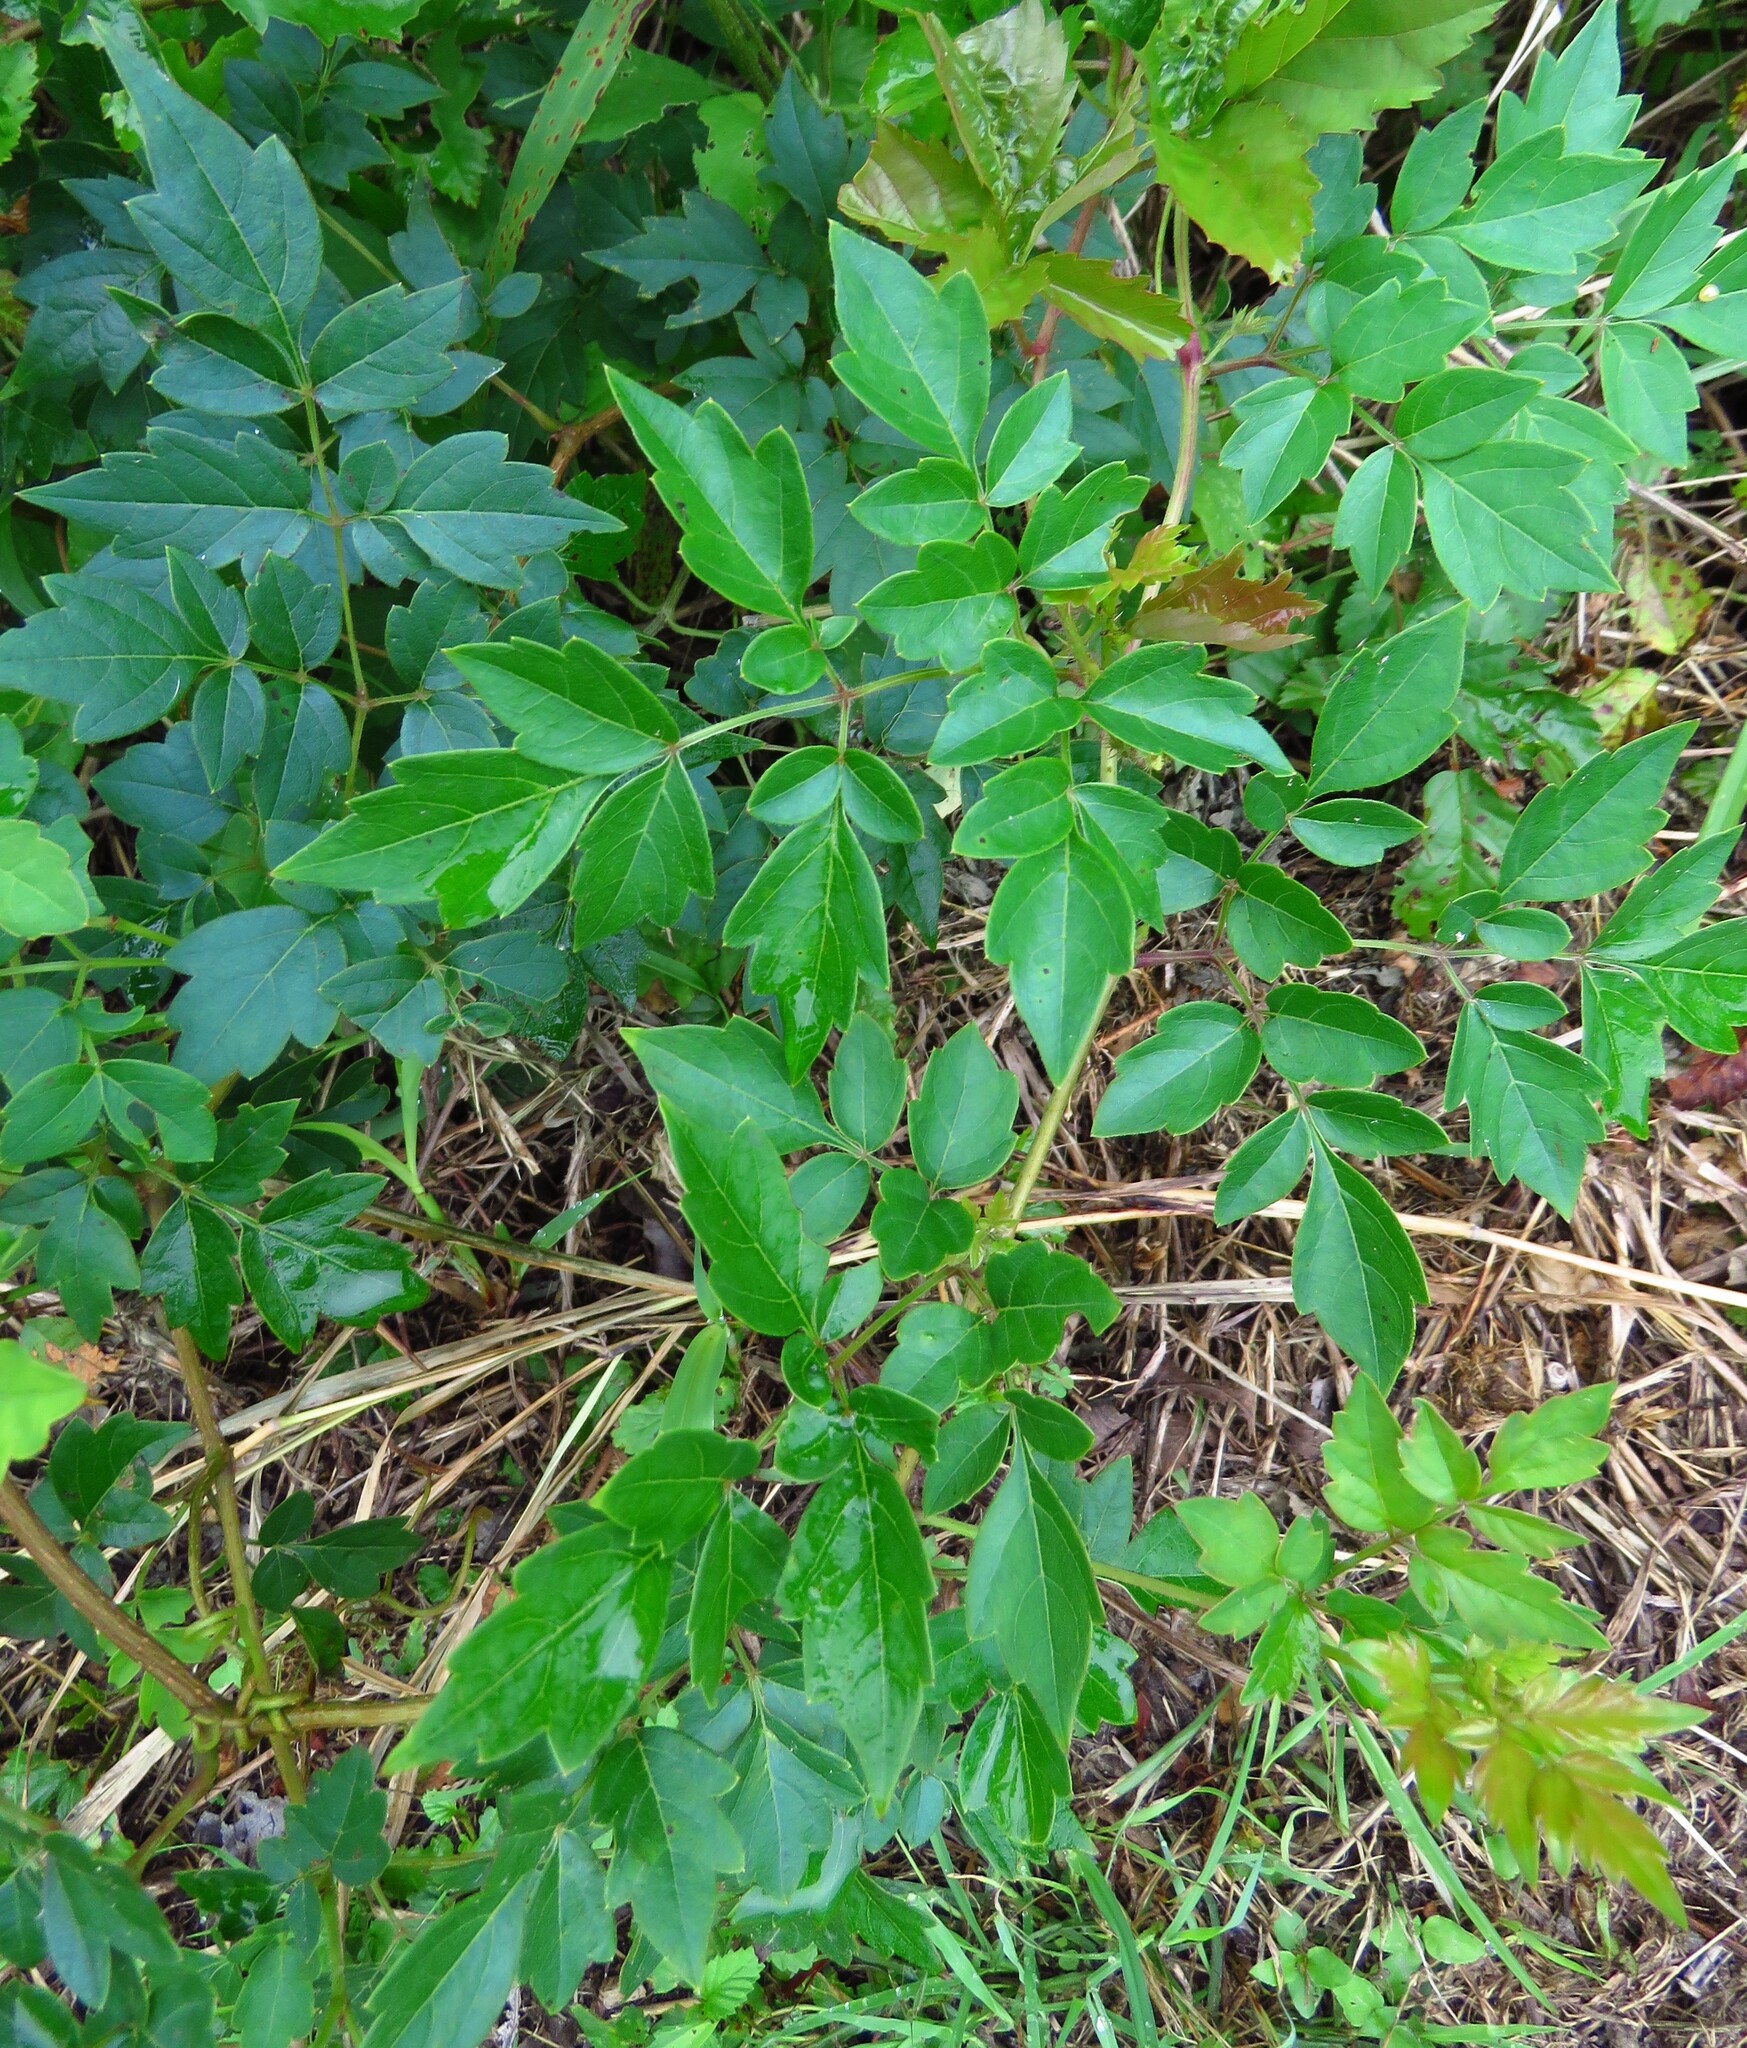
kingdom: Plantae
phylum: Tracheophyta
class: Magnoliopsida
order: Vitales
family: Vitaceae
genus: Nekemias
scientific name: Nekemias arborea
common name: Peppervine
